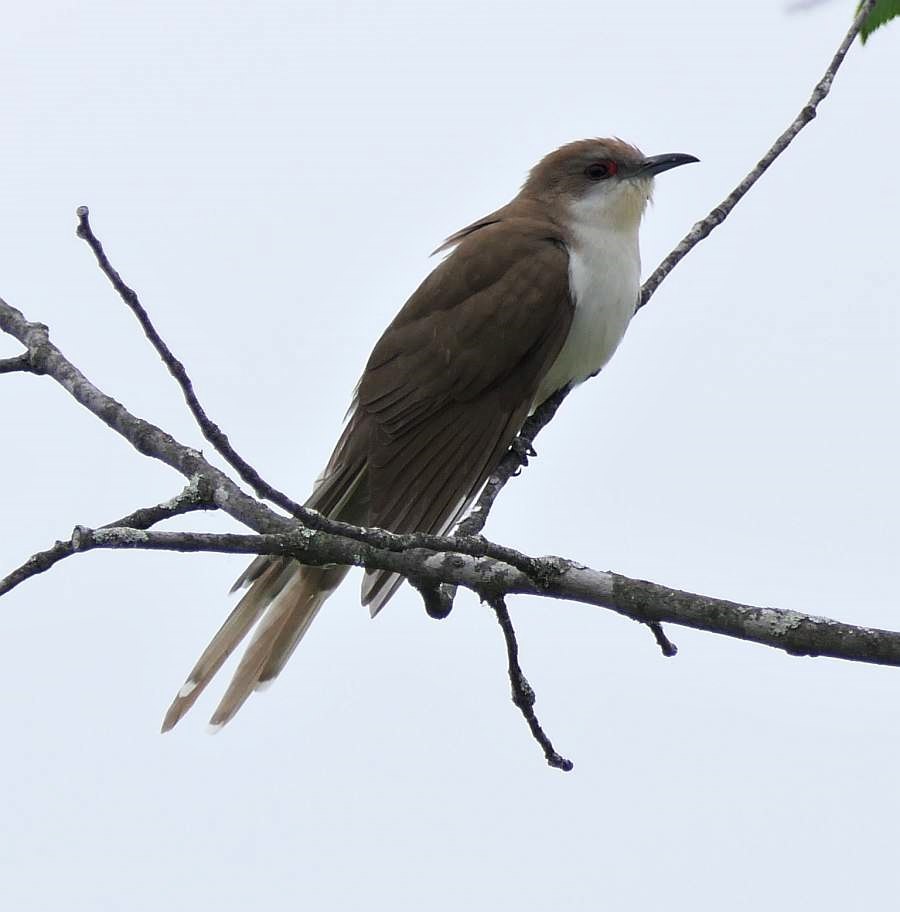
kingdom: Animalia
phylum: Chordata
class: Aves
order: Cuculiformes
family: Cuculidae
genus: Coccyzus
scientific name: Coccyzus erythropthalmus
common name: Black-billed cuckoo
